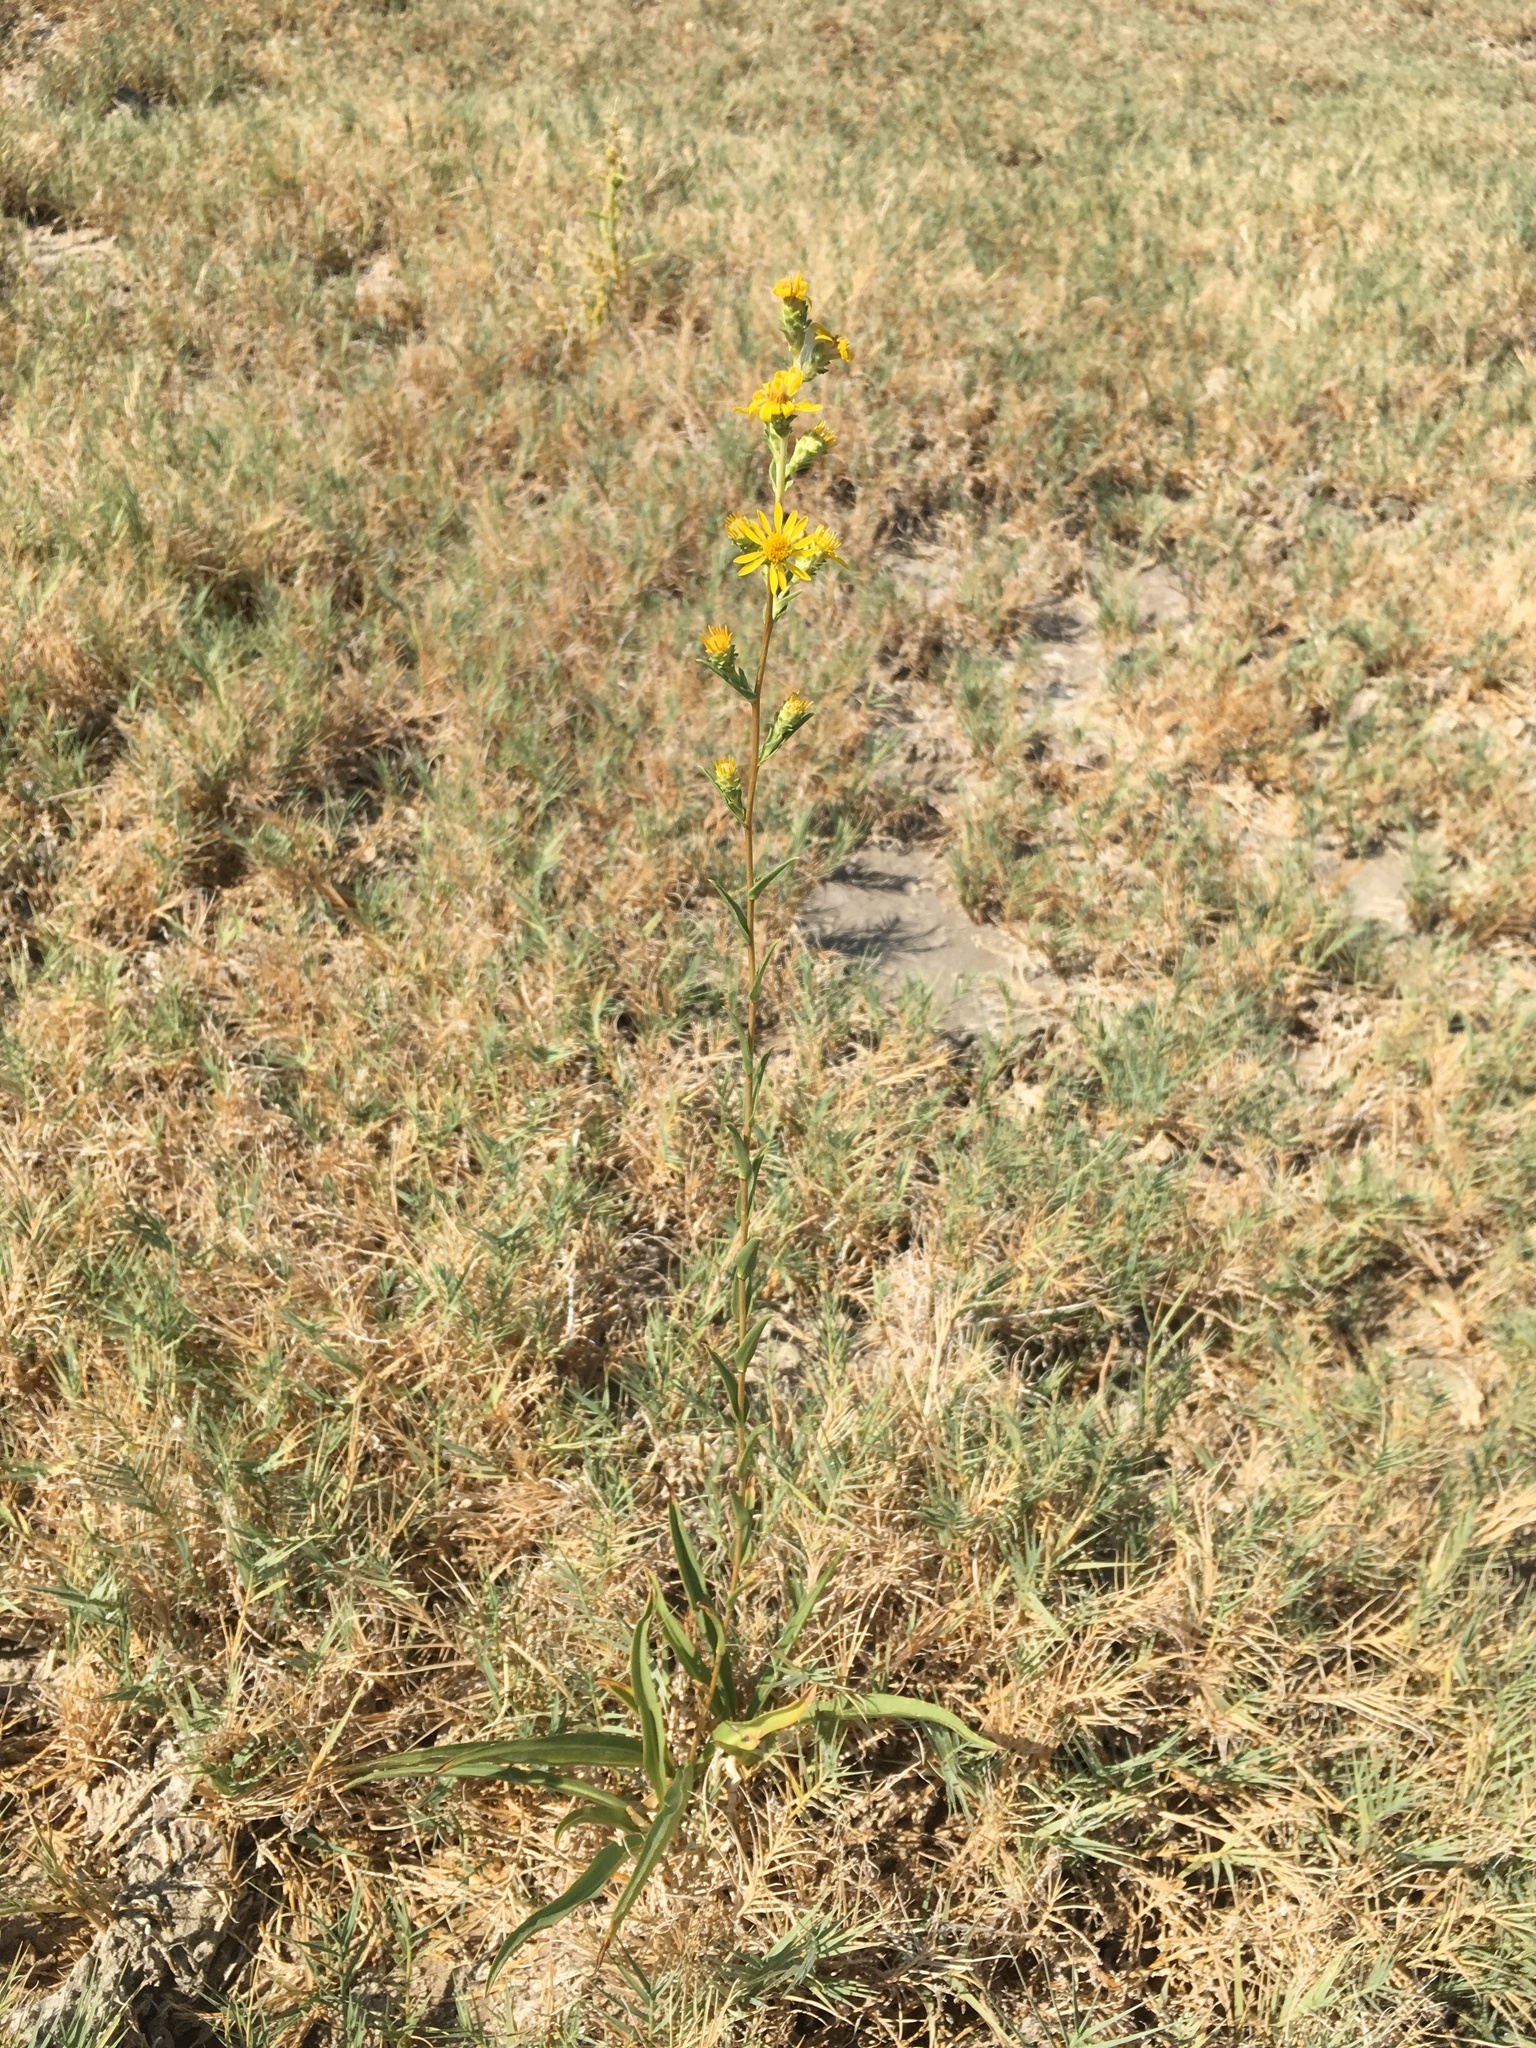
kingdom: Plantae
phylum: Tracheophyta
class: Magnoliopsida
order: Asterales
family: Asteraceae
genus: Pyrrocoma
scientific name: Pyrrocoma racemosa
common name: Clustered goldenweed
